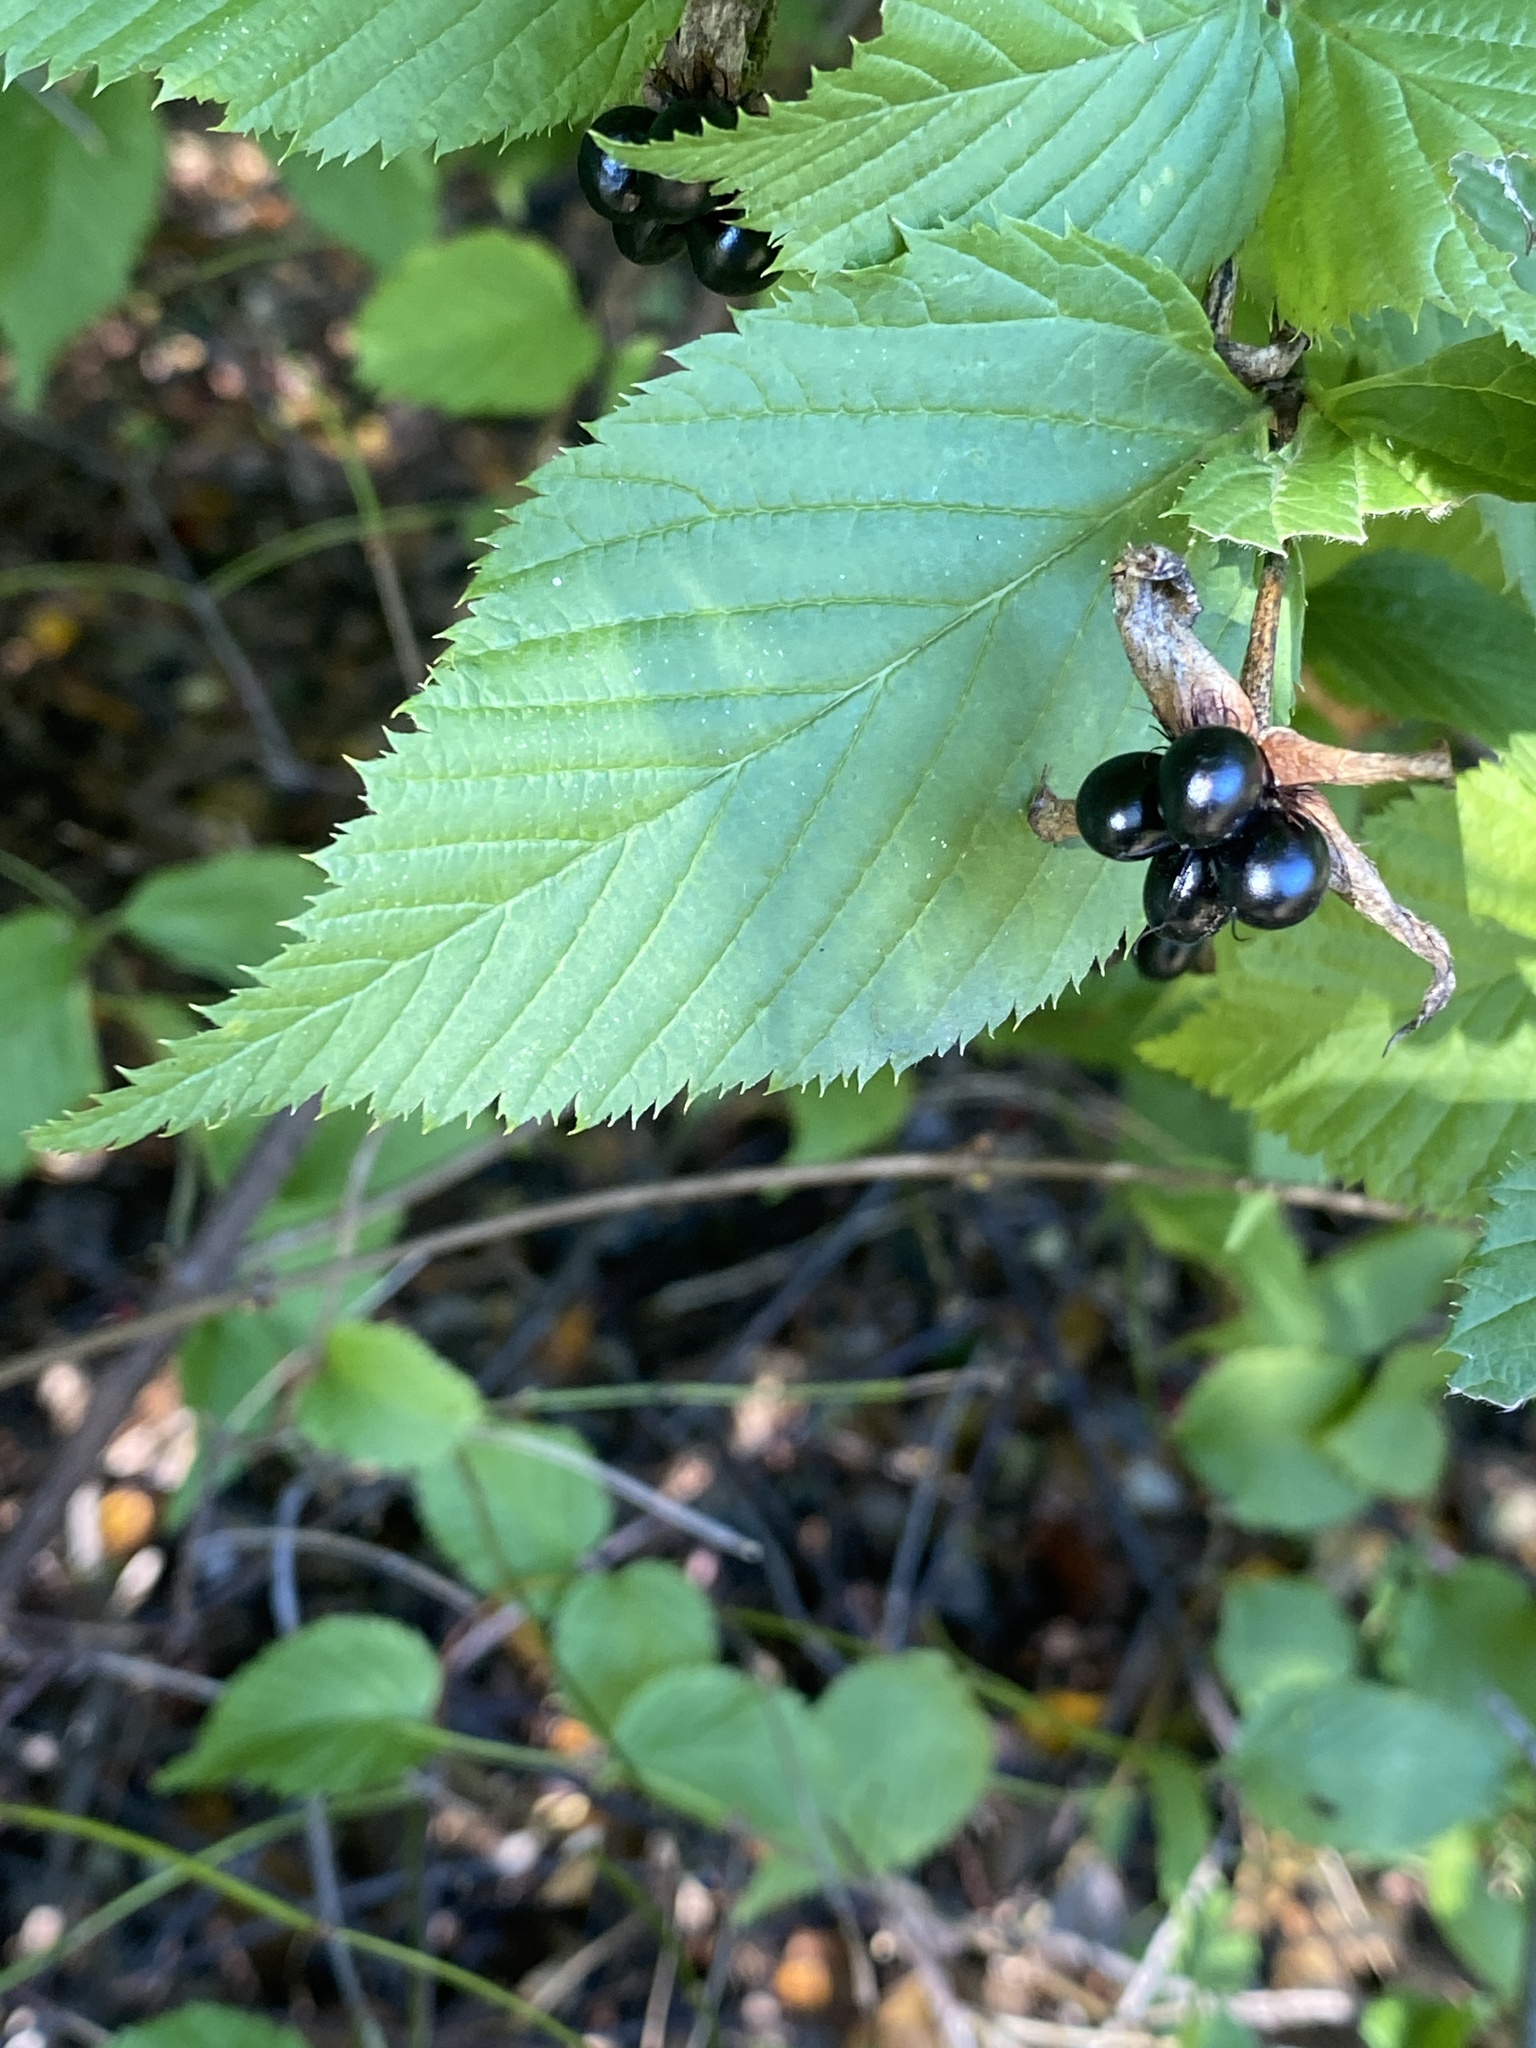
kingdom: Plantae
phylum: Tracheophyta
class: Magnoliopsida
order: Rosales
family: Rosaceae
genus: Rhodotypos
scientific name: Rhodotypos scandens
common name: Jetbead
